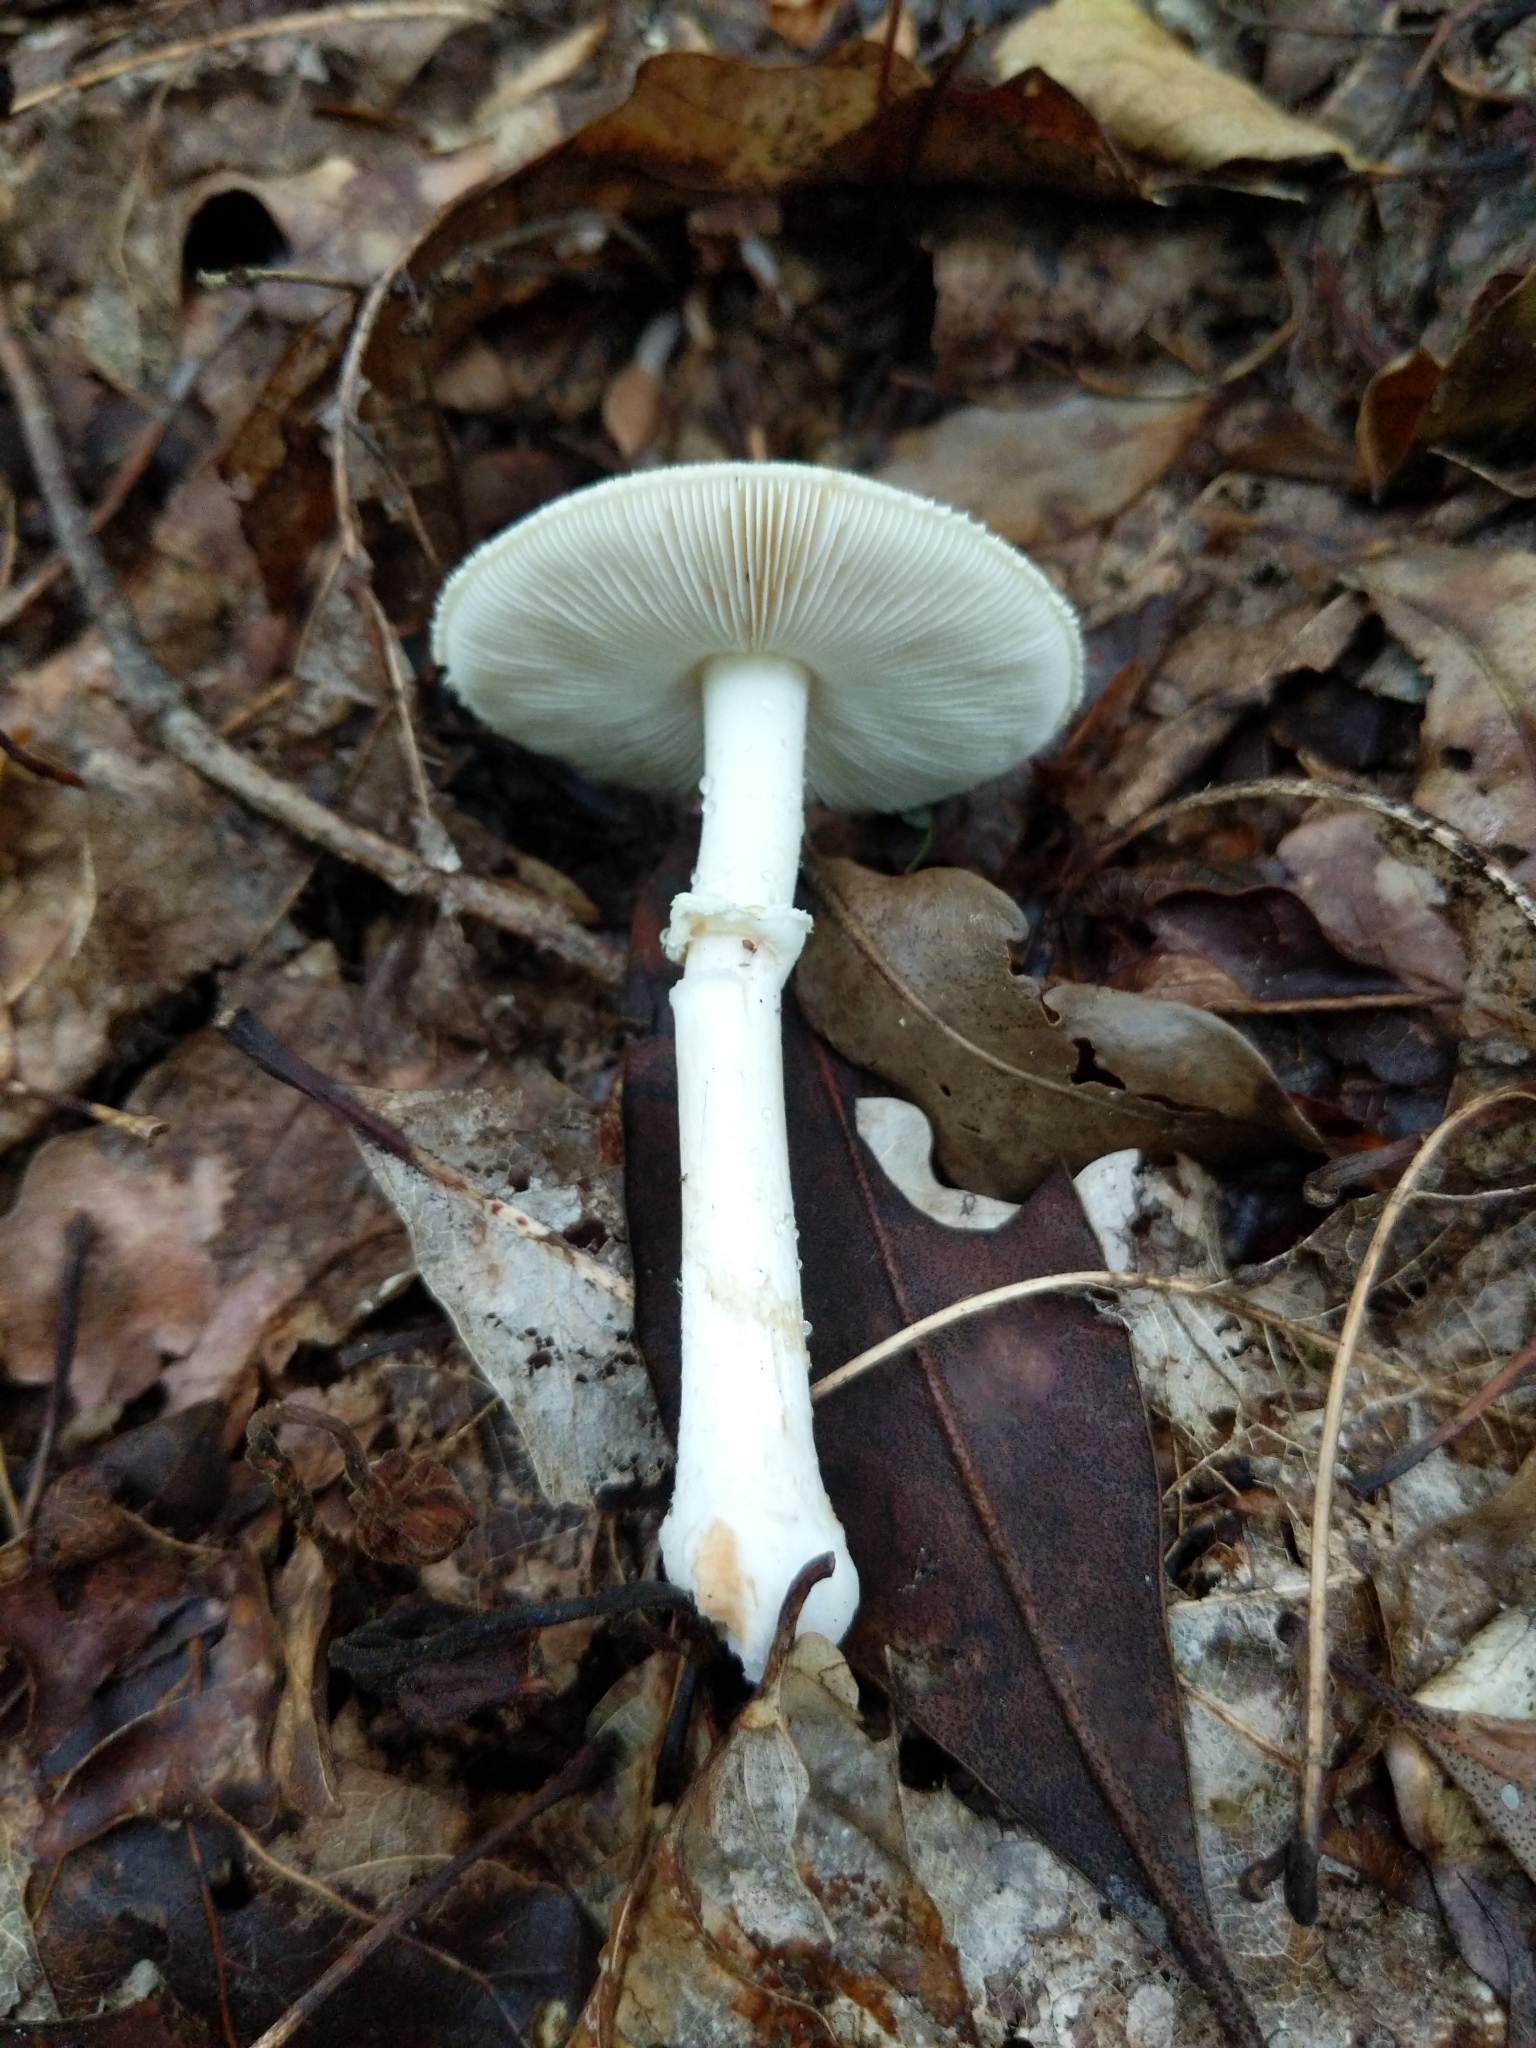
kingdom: Fungi
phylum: Basidiomycota
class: Agaricomycetes
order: Agaricales
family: Amanitaceae
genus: Amanita
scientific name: Amanita lavendula
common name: Coker's lavender staining amanita
